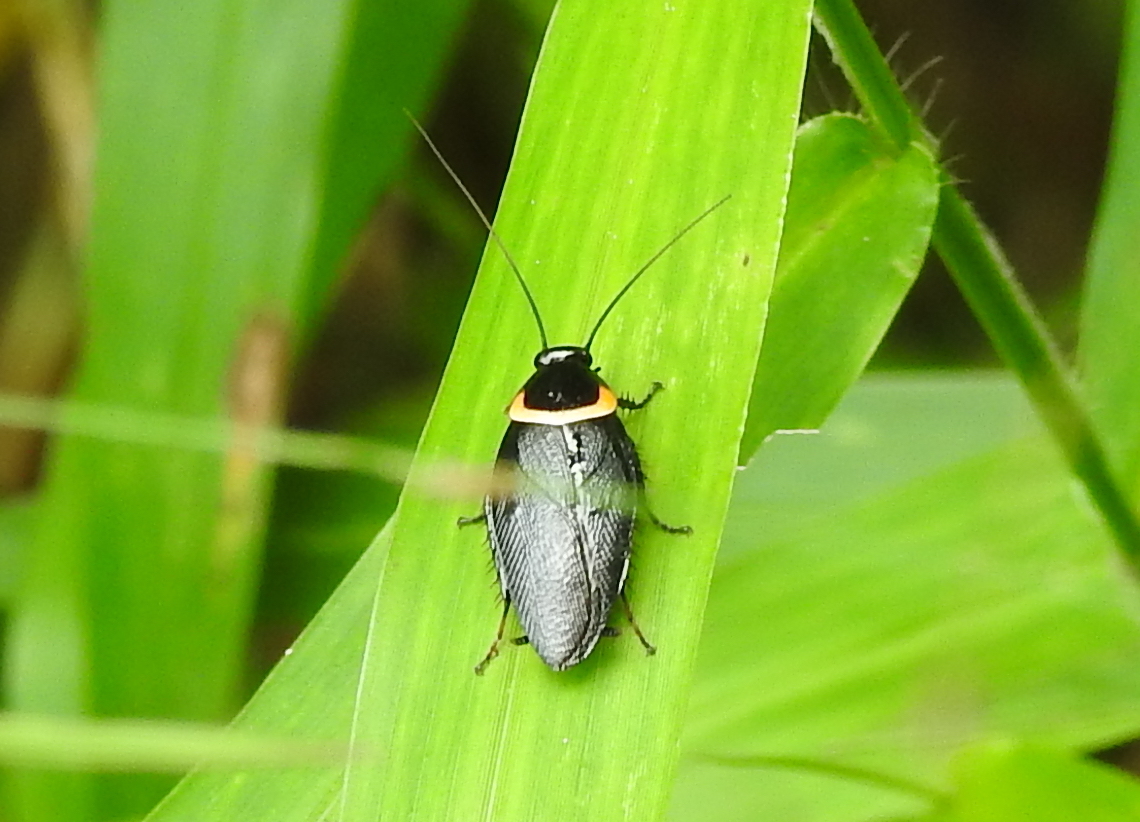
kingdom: Animalia
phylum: Arthropoda
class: Insecta
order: Blattodea
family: Ectobiidae
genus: Hemithyrsocera
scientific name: Hemithyrsocera palliata
